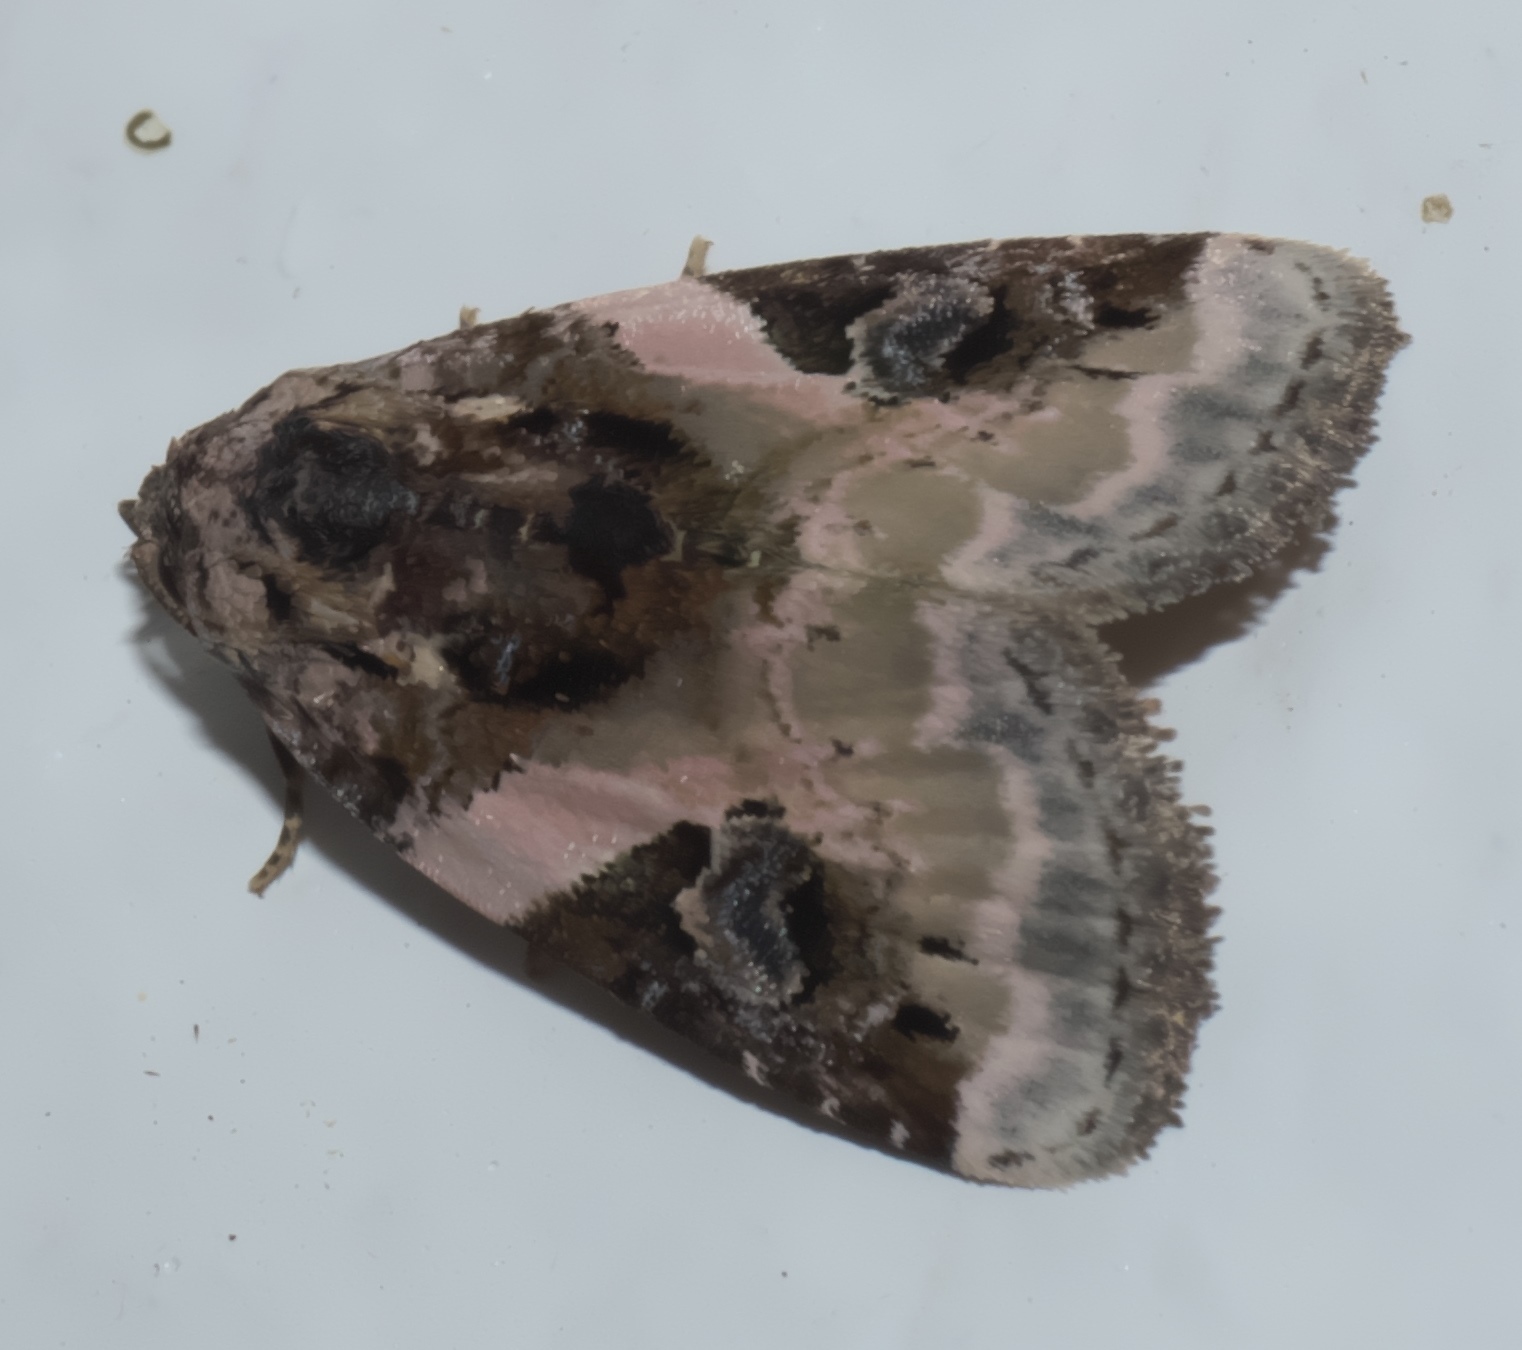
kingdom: Animalia
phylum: Arthropoda
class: Insecta
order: Lepidoptera
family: Noctuidae
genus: Pseudeustrotia
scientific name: Pseudeustrotia carneola
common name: Pink-barred lithacodia moth
